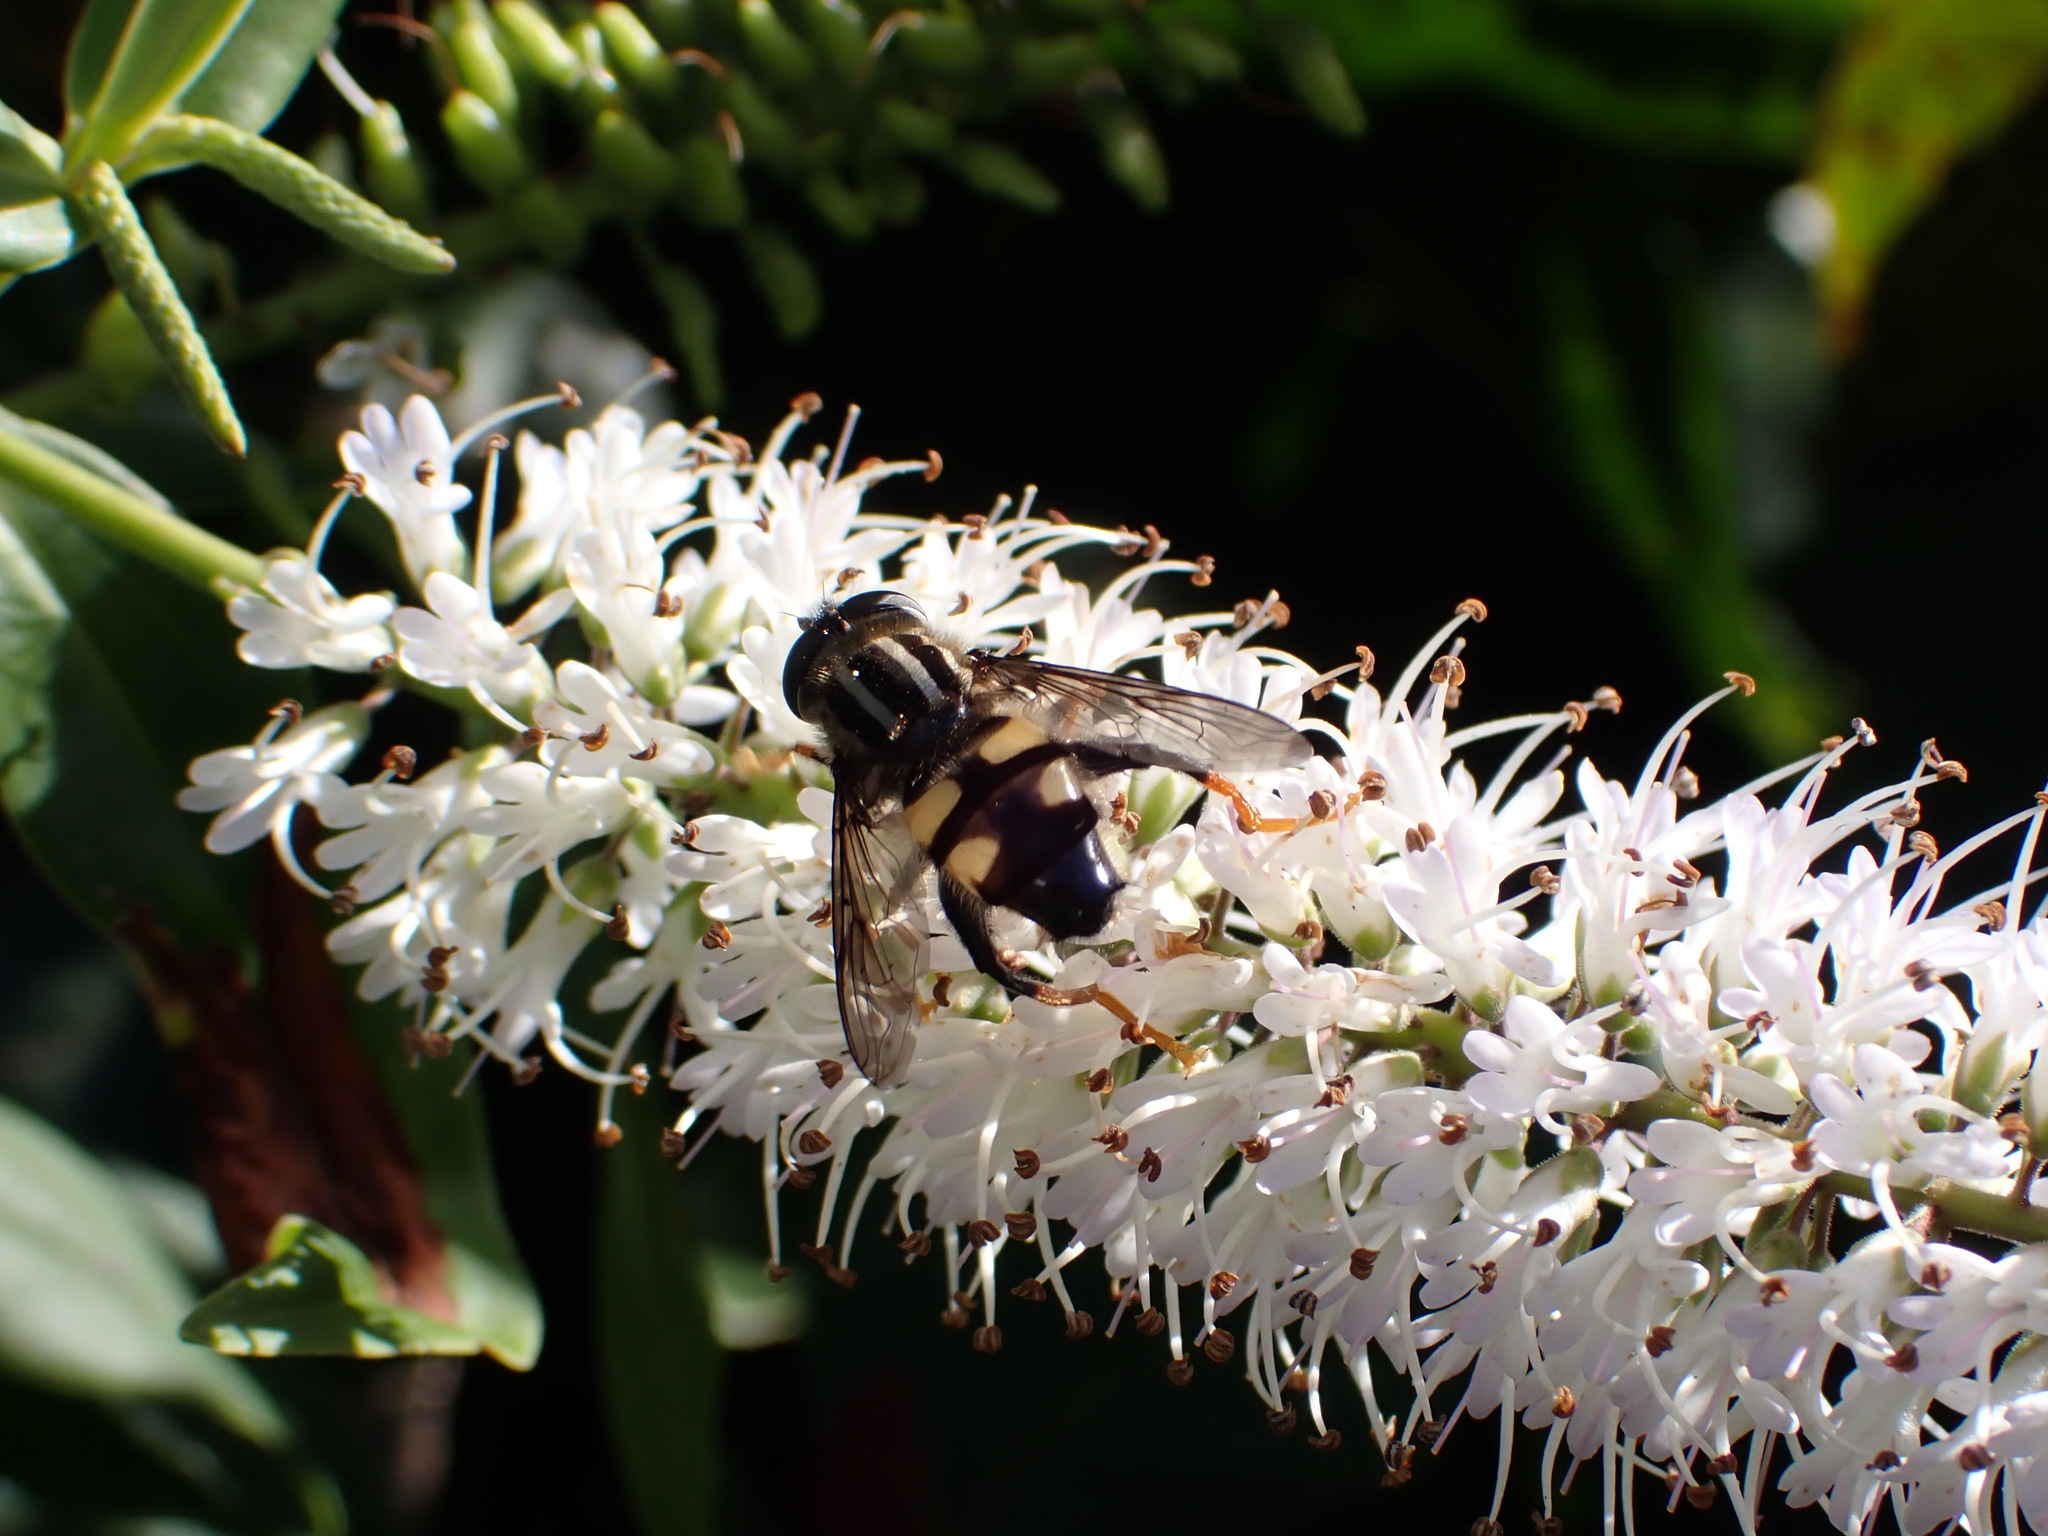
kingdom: Animalia
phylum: Arthropoda
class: Insecta
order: Diptera
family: Syrphidae
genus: Helophilus
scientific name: Helophilus seelandicus
